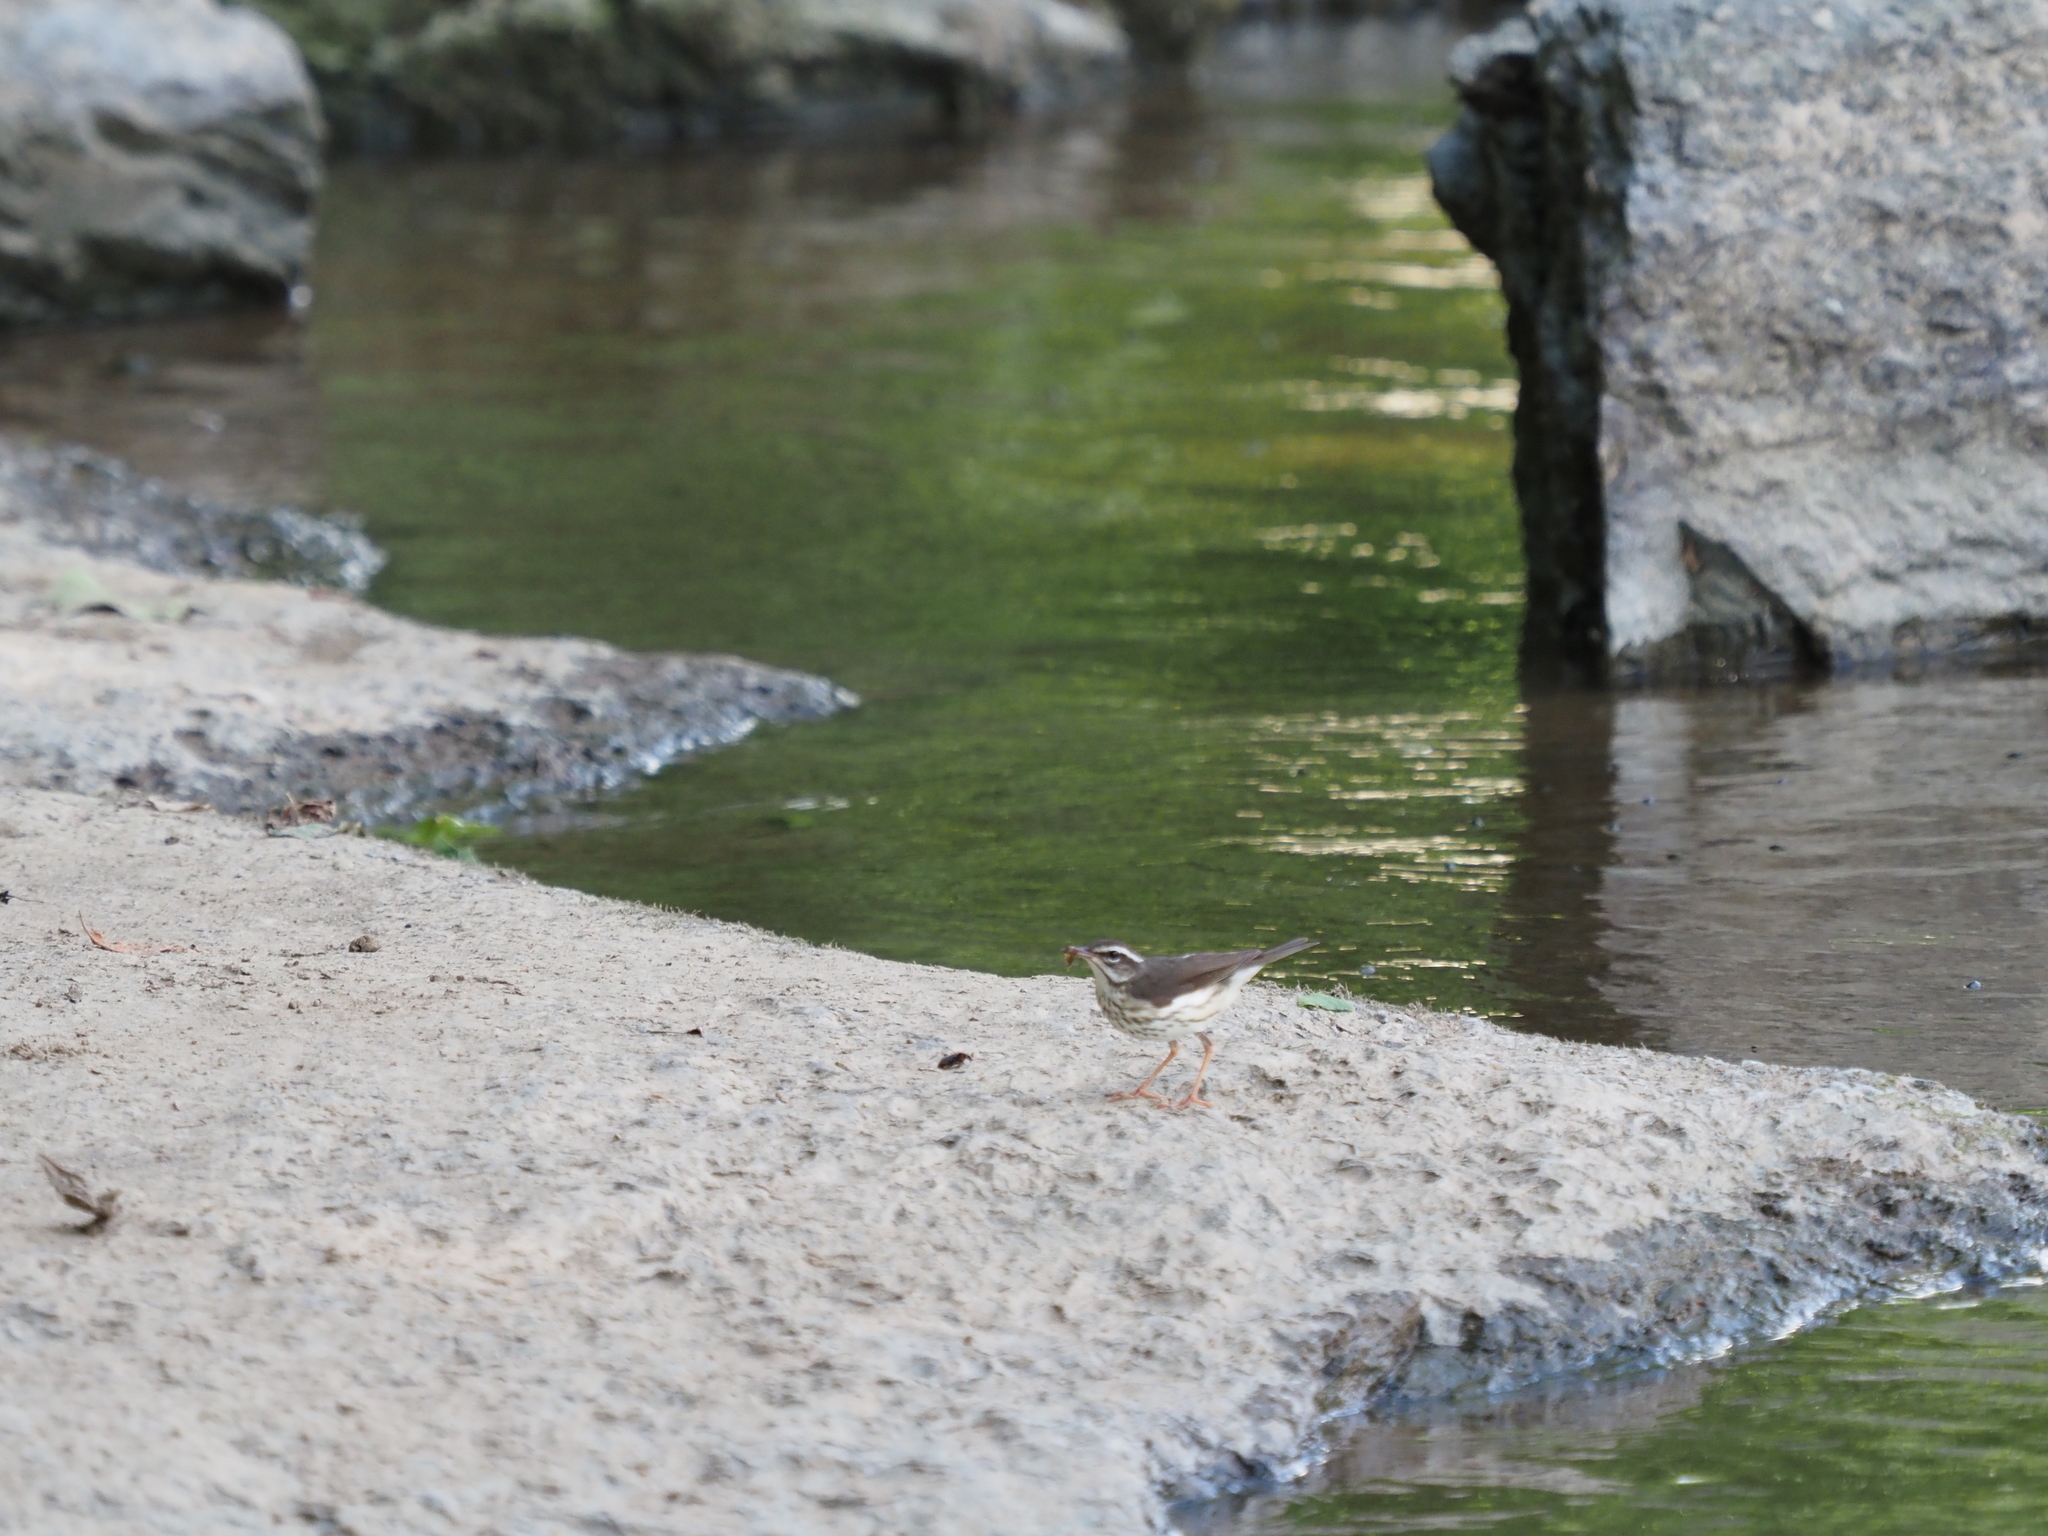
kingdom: Animalia
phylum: Chordata
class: Aves
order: Passeriformes
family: Parulidae
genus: Parkesia
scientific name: Parkesia motacilla
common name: Louisiana waterthrush
